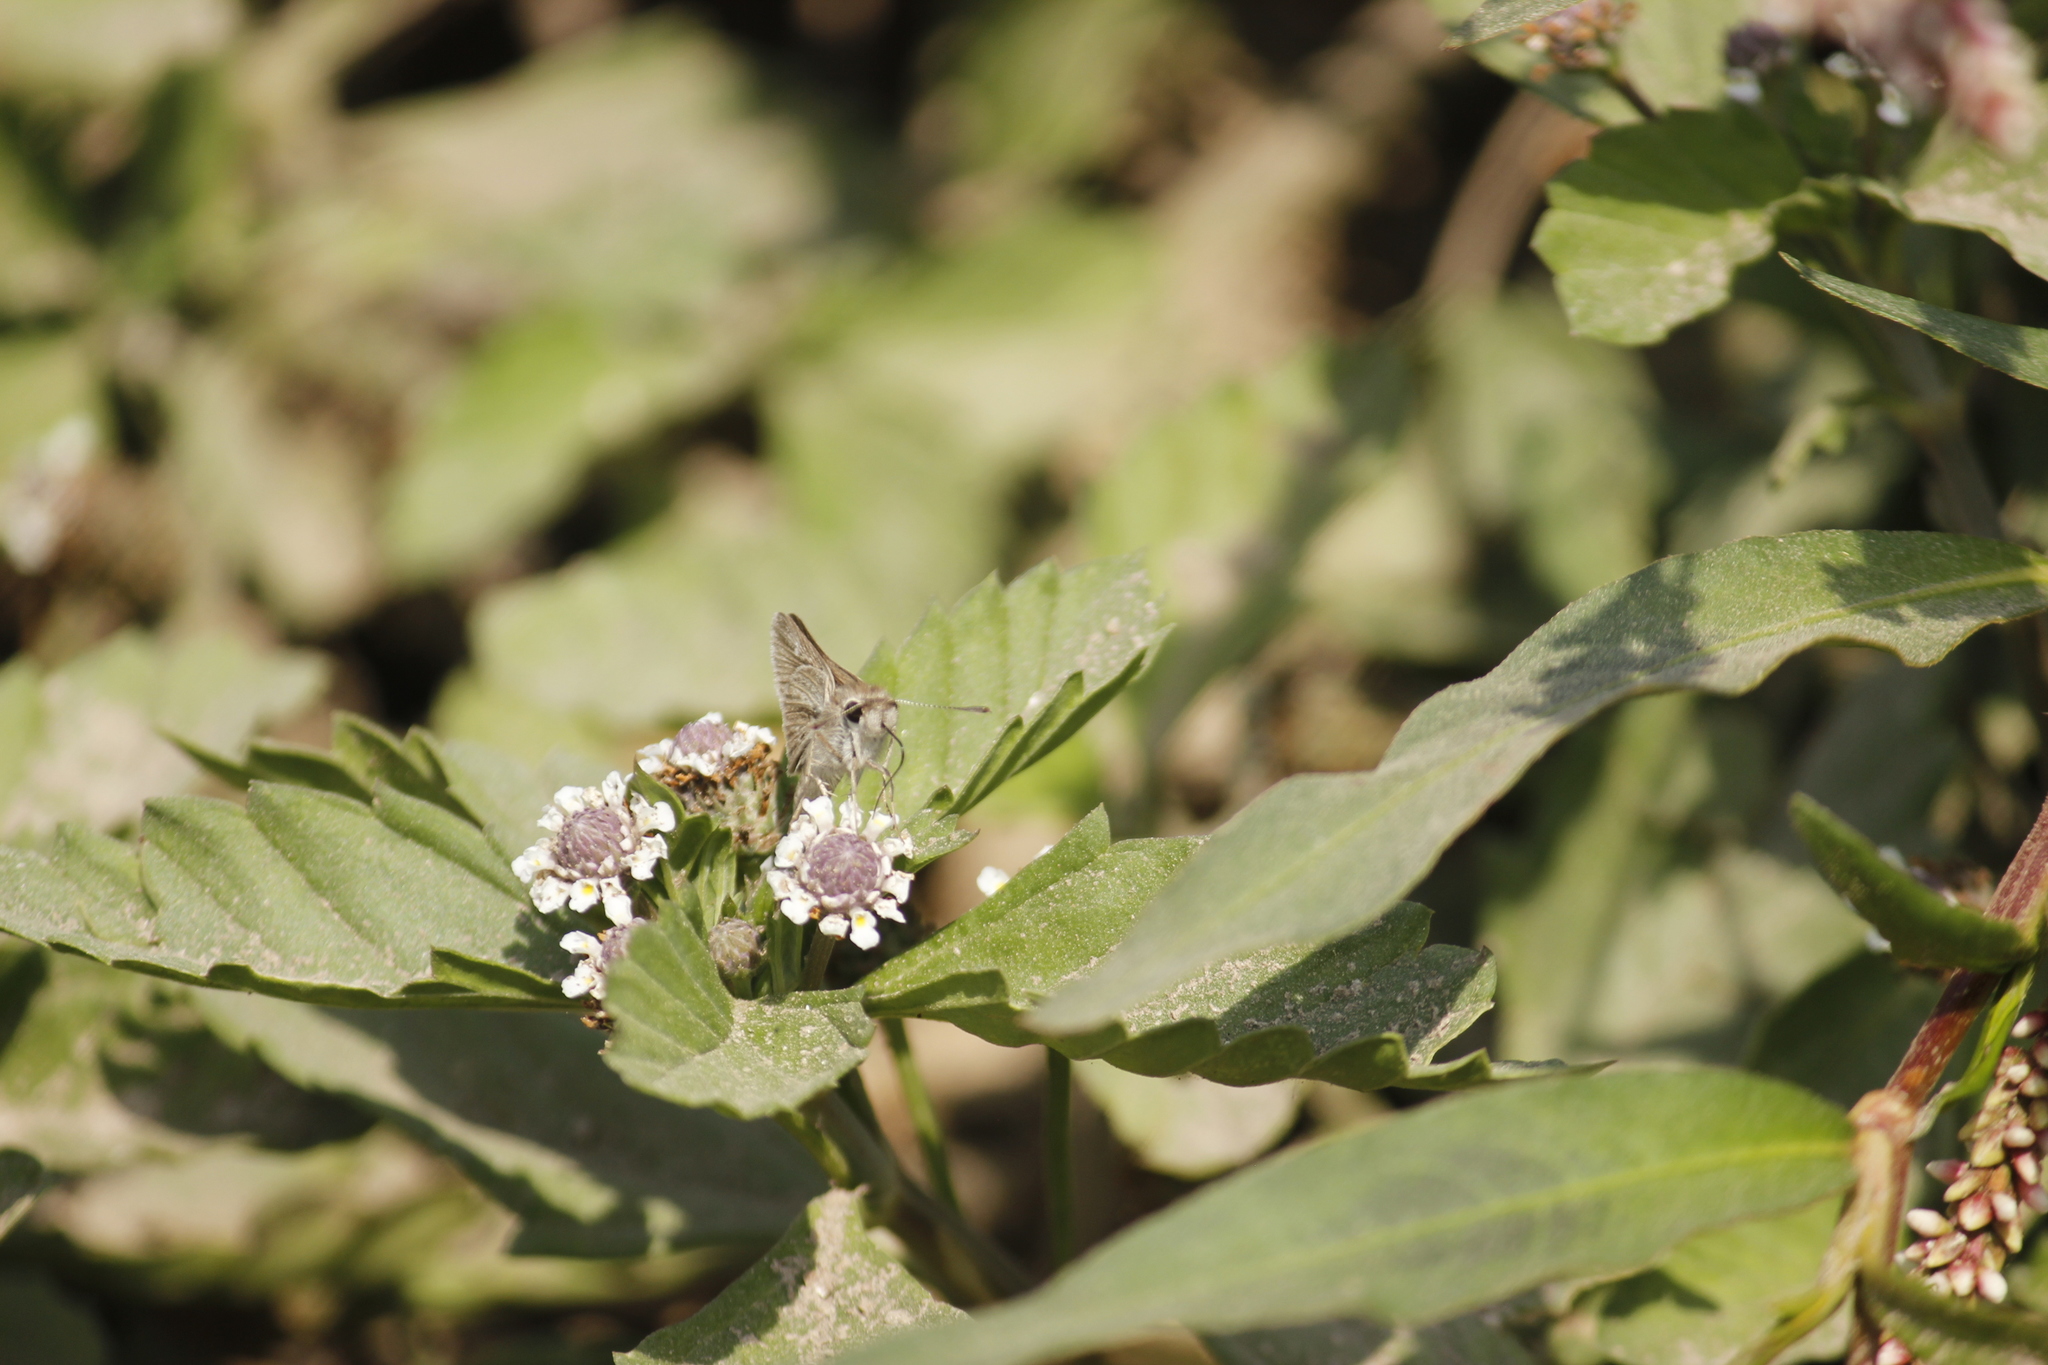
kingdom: Animalia
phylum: Arthropoda
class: Insecta
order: Lepidoptera
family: Hesperiidae
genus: Lerodea
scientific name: Lerodea gracia
